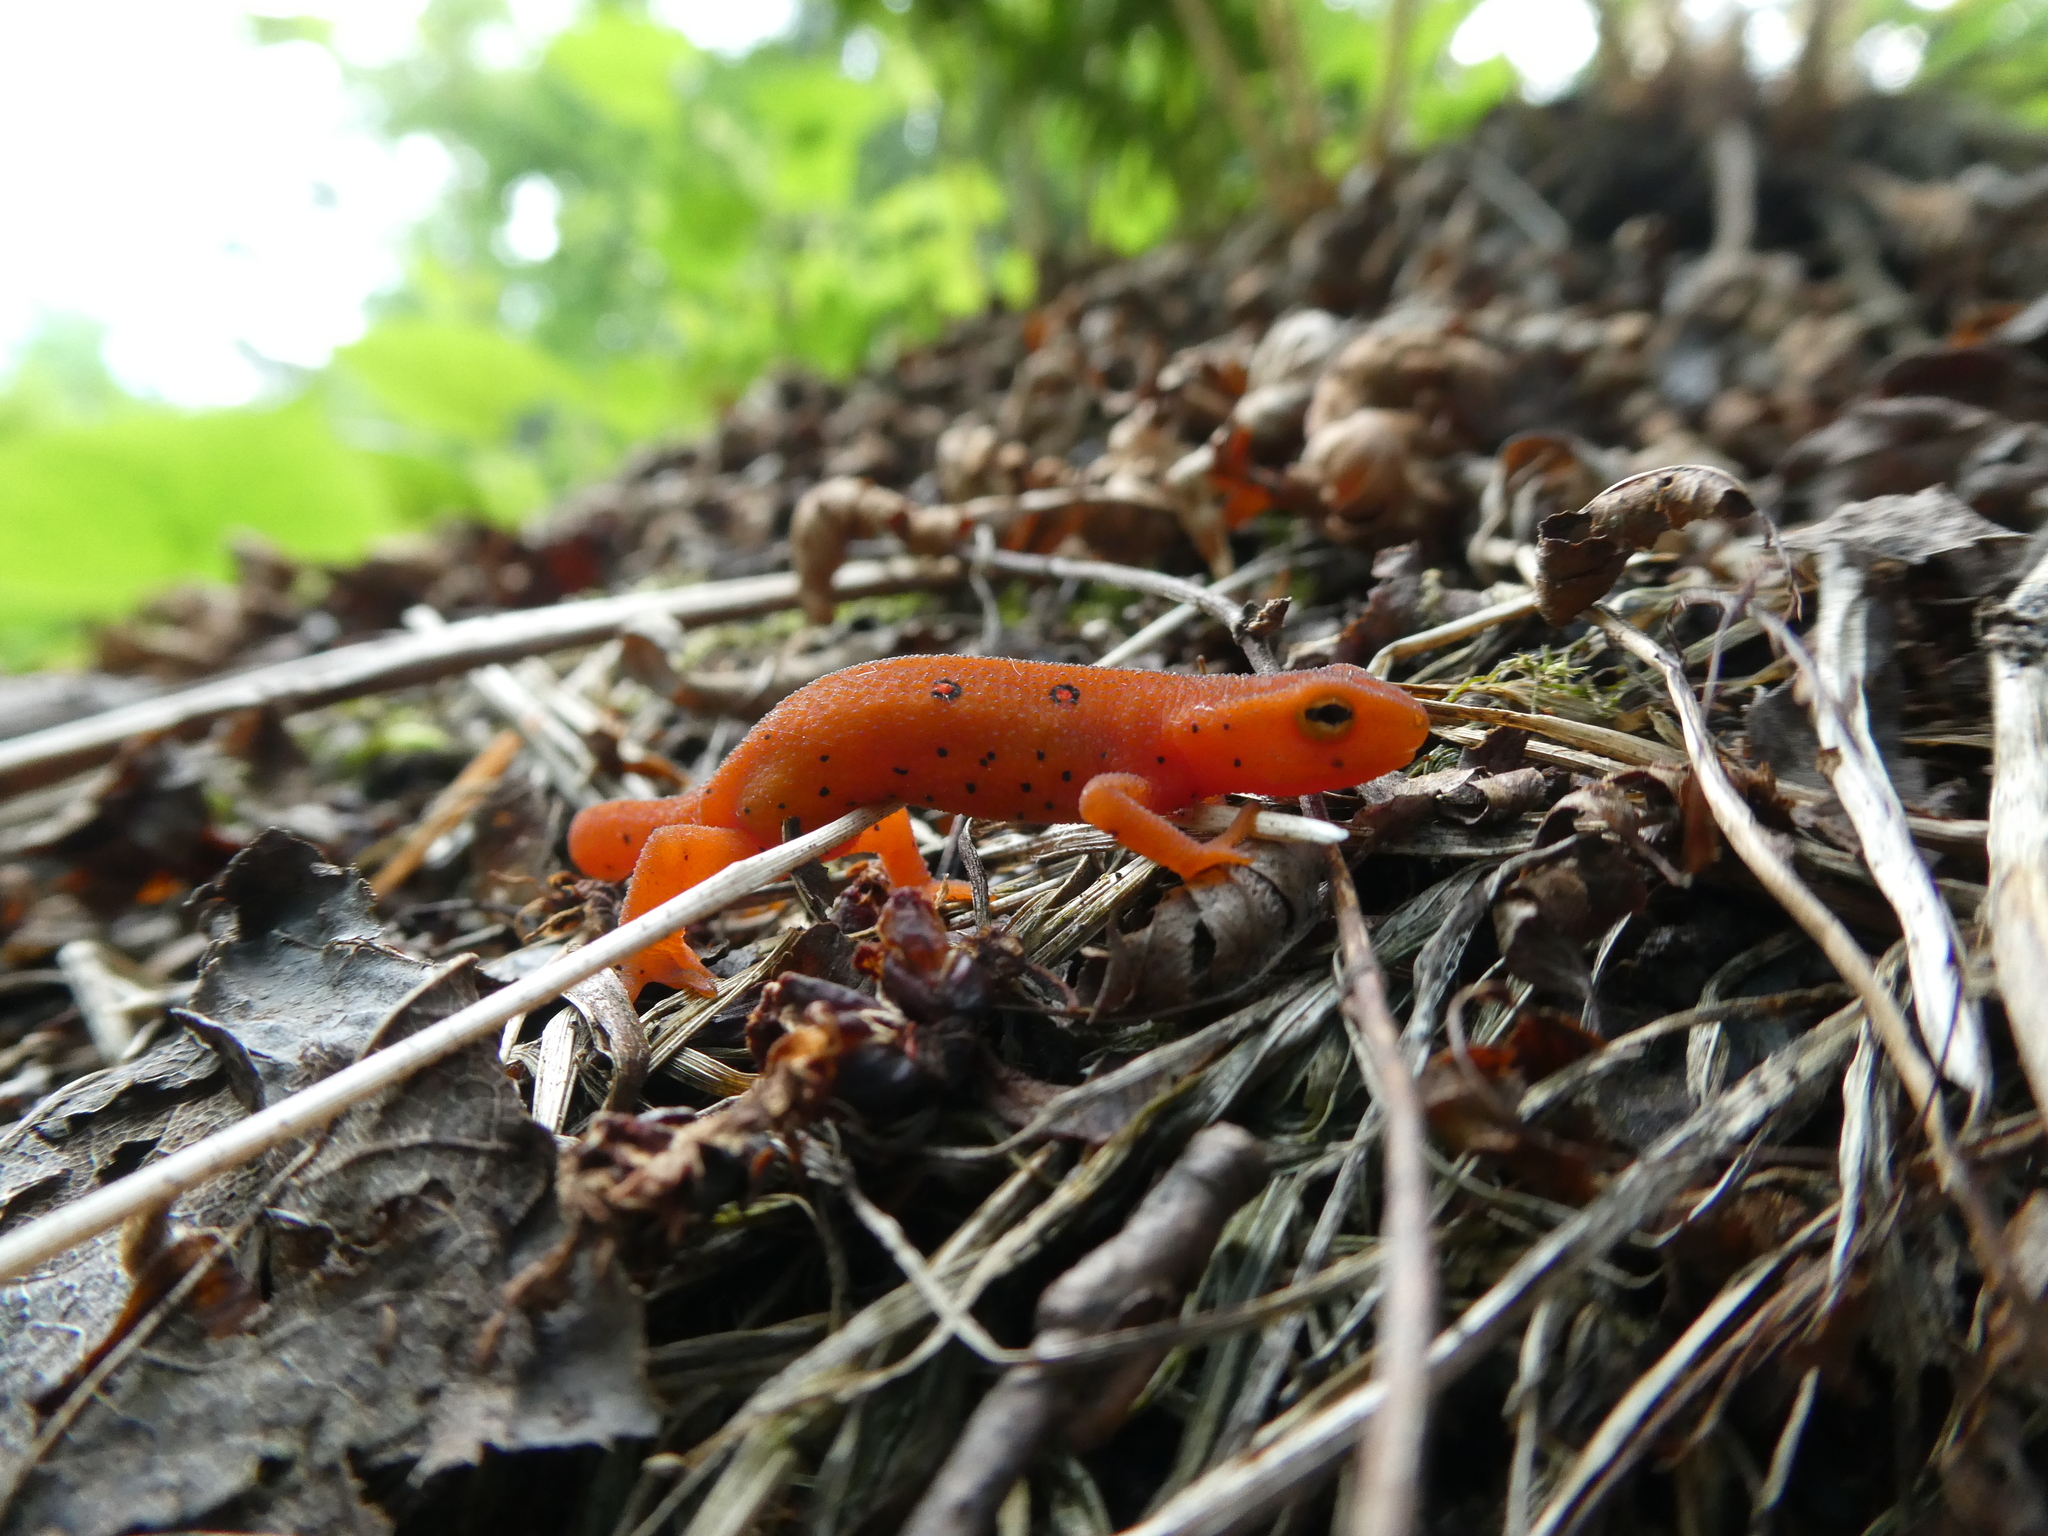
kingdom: Animalia
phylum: Chordata
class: Amphibia
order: Caudata
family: Salamandridae
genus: Notophthalmus
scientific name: Notophthalmus viridescens
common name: Eastern newt
